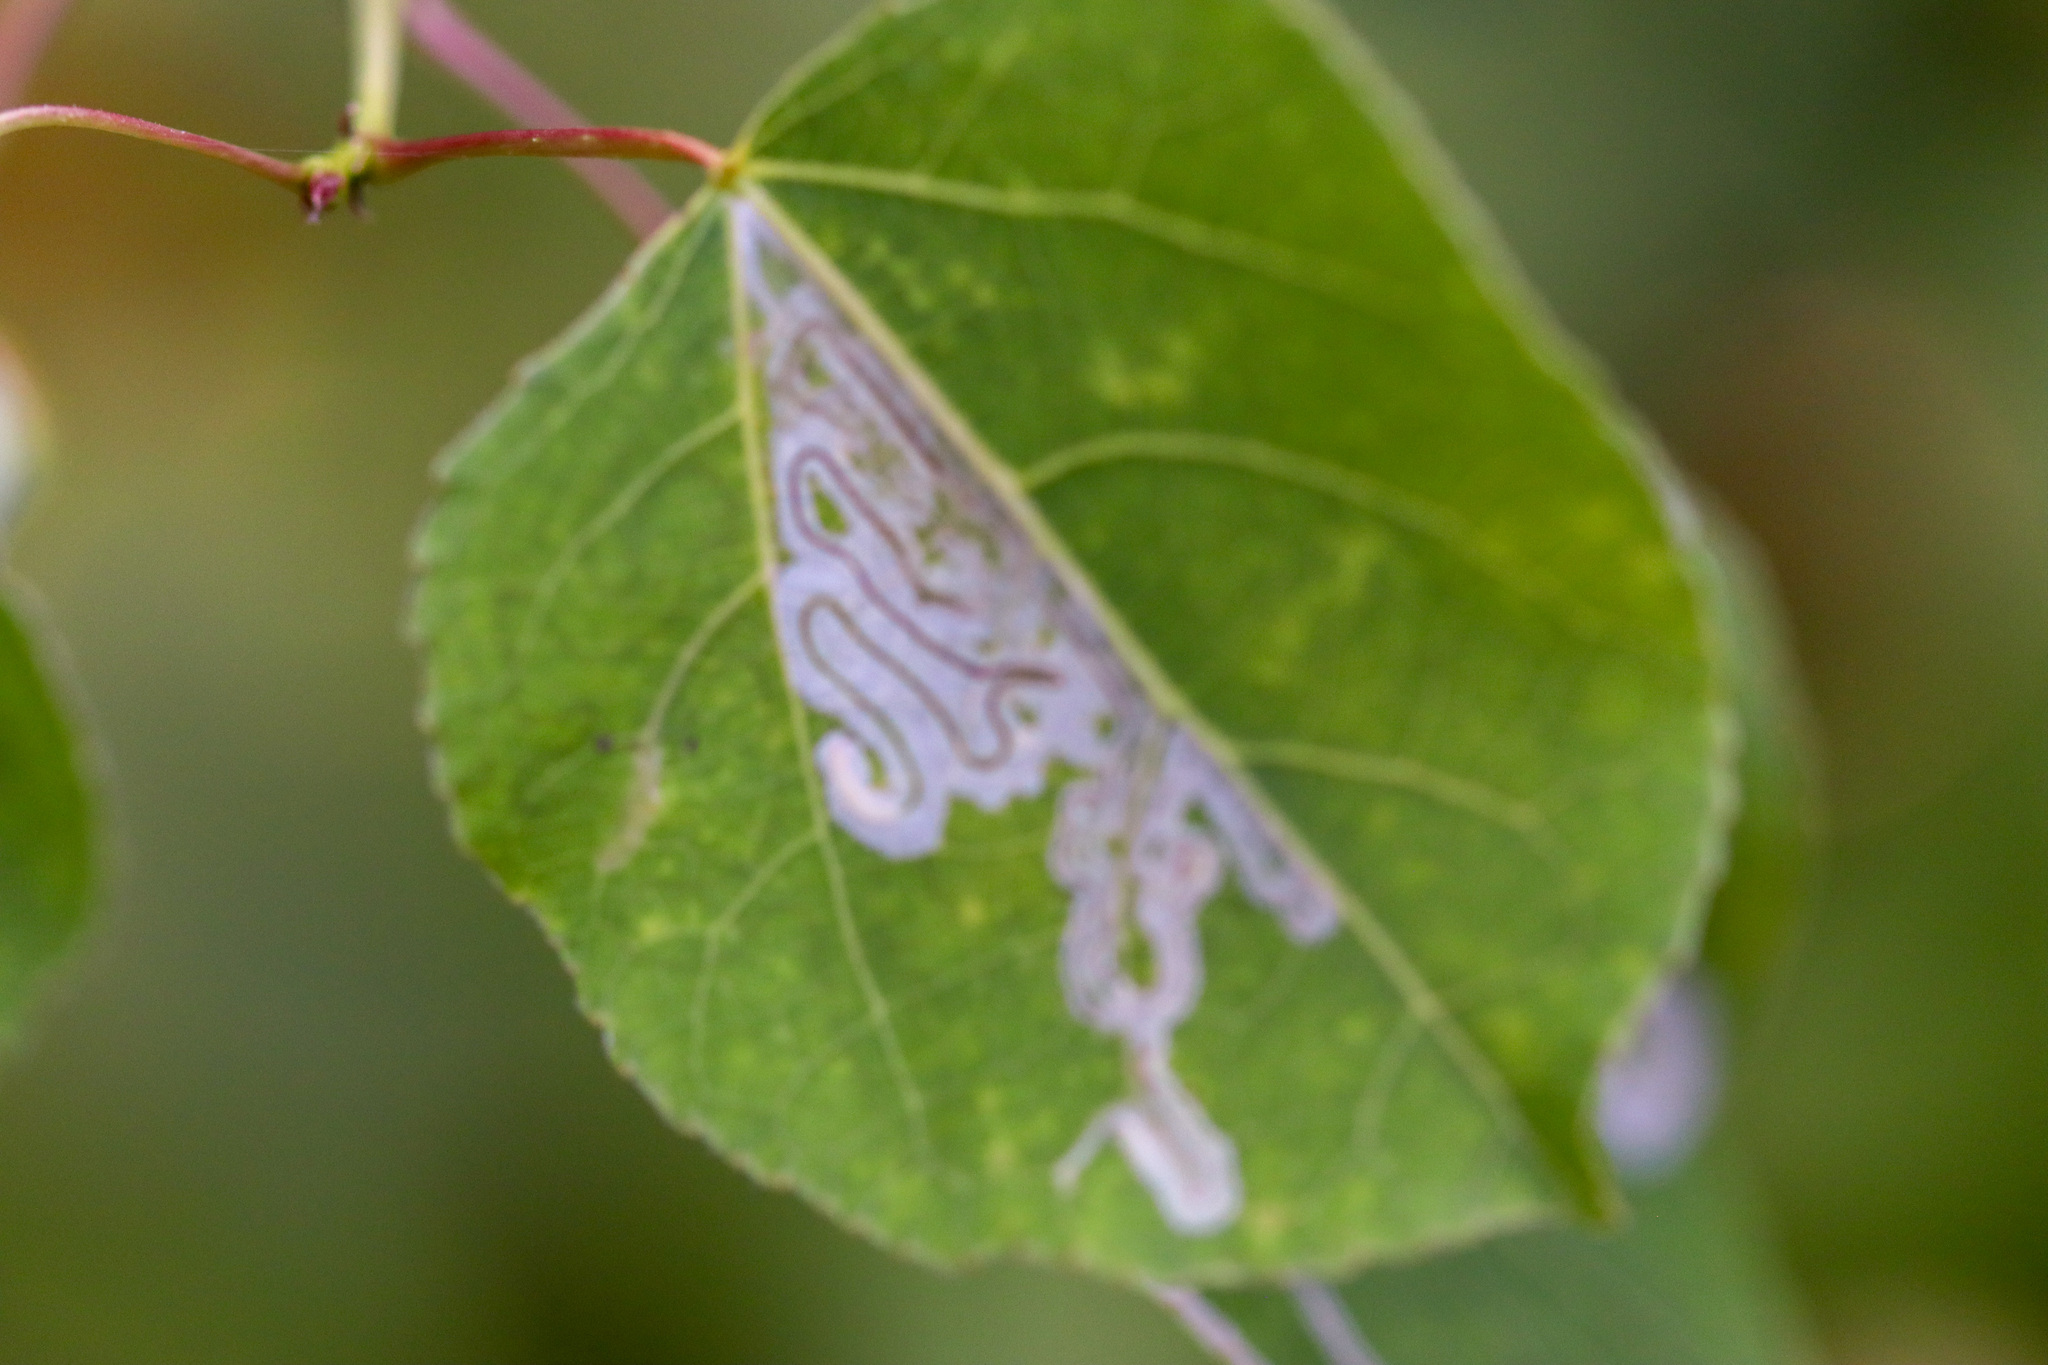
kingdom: Animalia
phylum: Arthropoda
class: Insecta
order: Lepidoptera
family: Gracillariidae
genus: Phyllocnistis
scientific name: Phyllocnistis populiella
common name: Aspen serpentine leafminer moth
